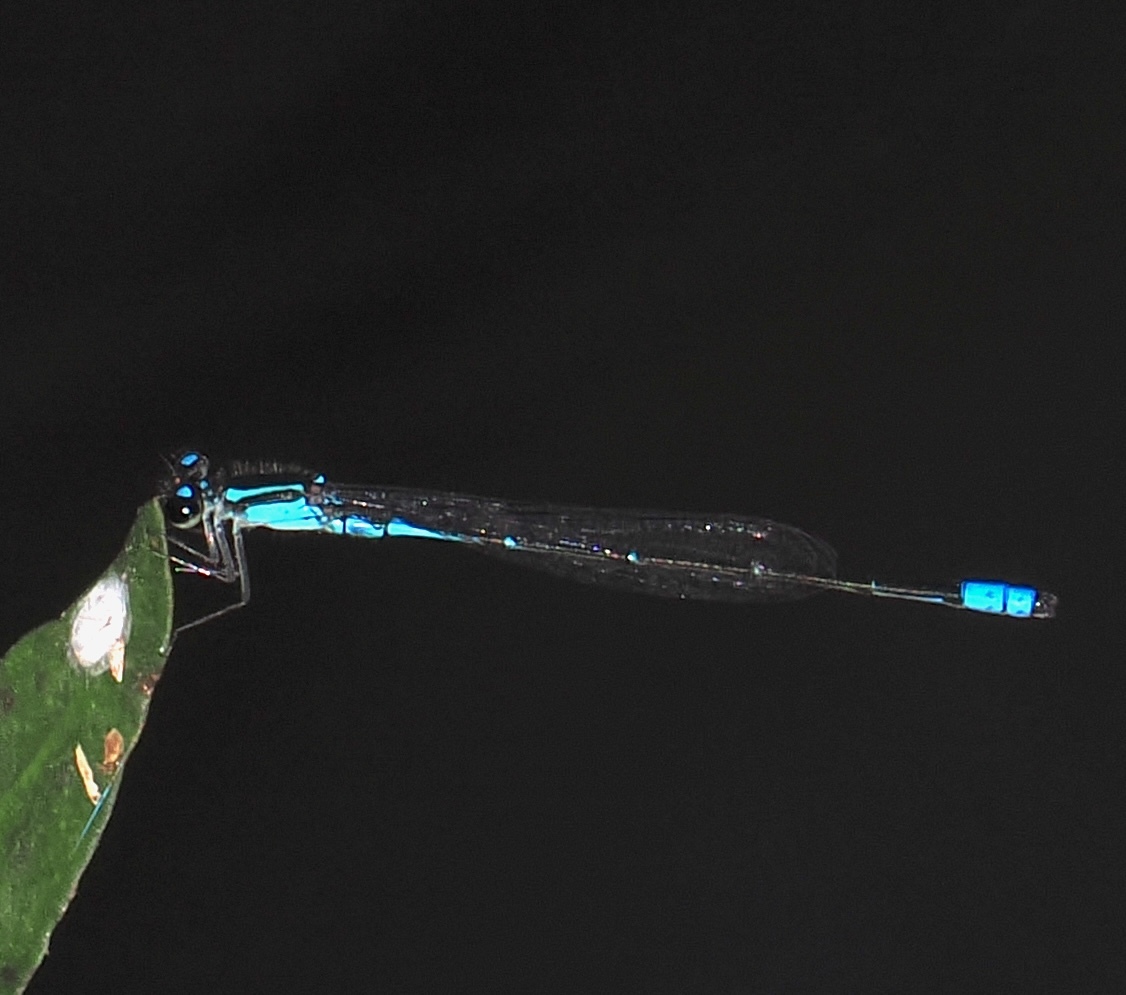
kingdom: Animalia
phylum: Arthropoda
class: Insecta
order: Odonata
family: Coenagrionidae
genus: Acanthagrion
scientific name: Acanthagrion lancea
